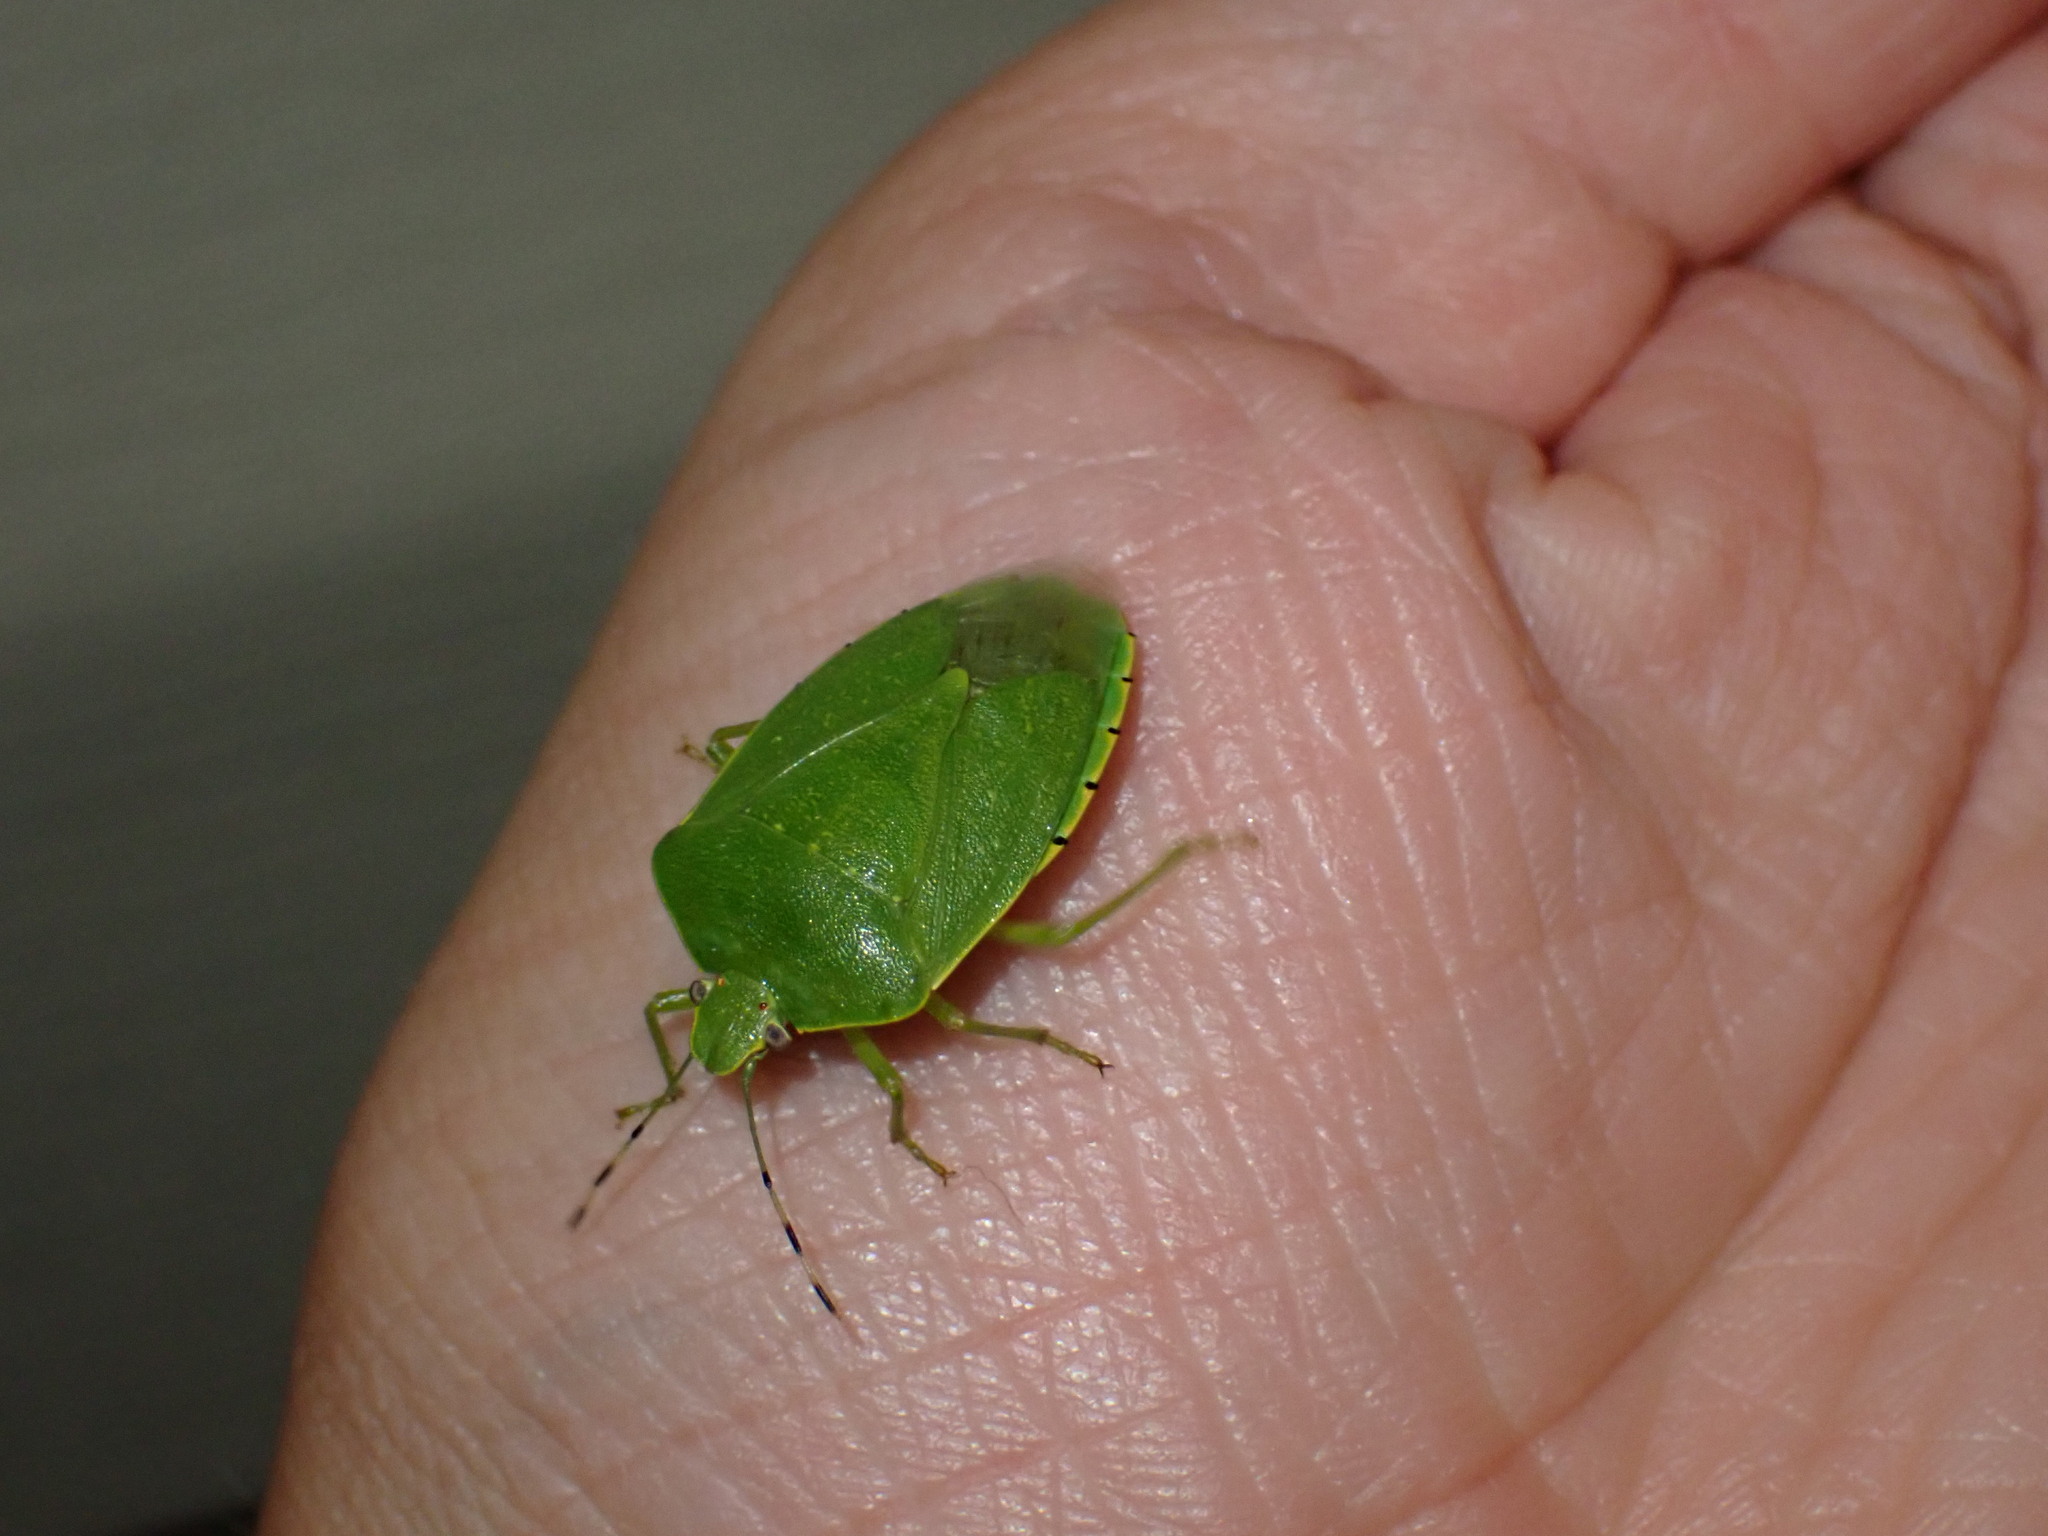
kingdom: Animalia
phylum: Arthropoda
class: Insecta
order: Hemiptera
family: Pentatomidae
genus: Chinavia
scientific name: Chinavia hilaris
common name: Green stink bug
